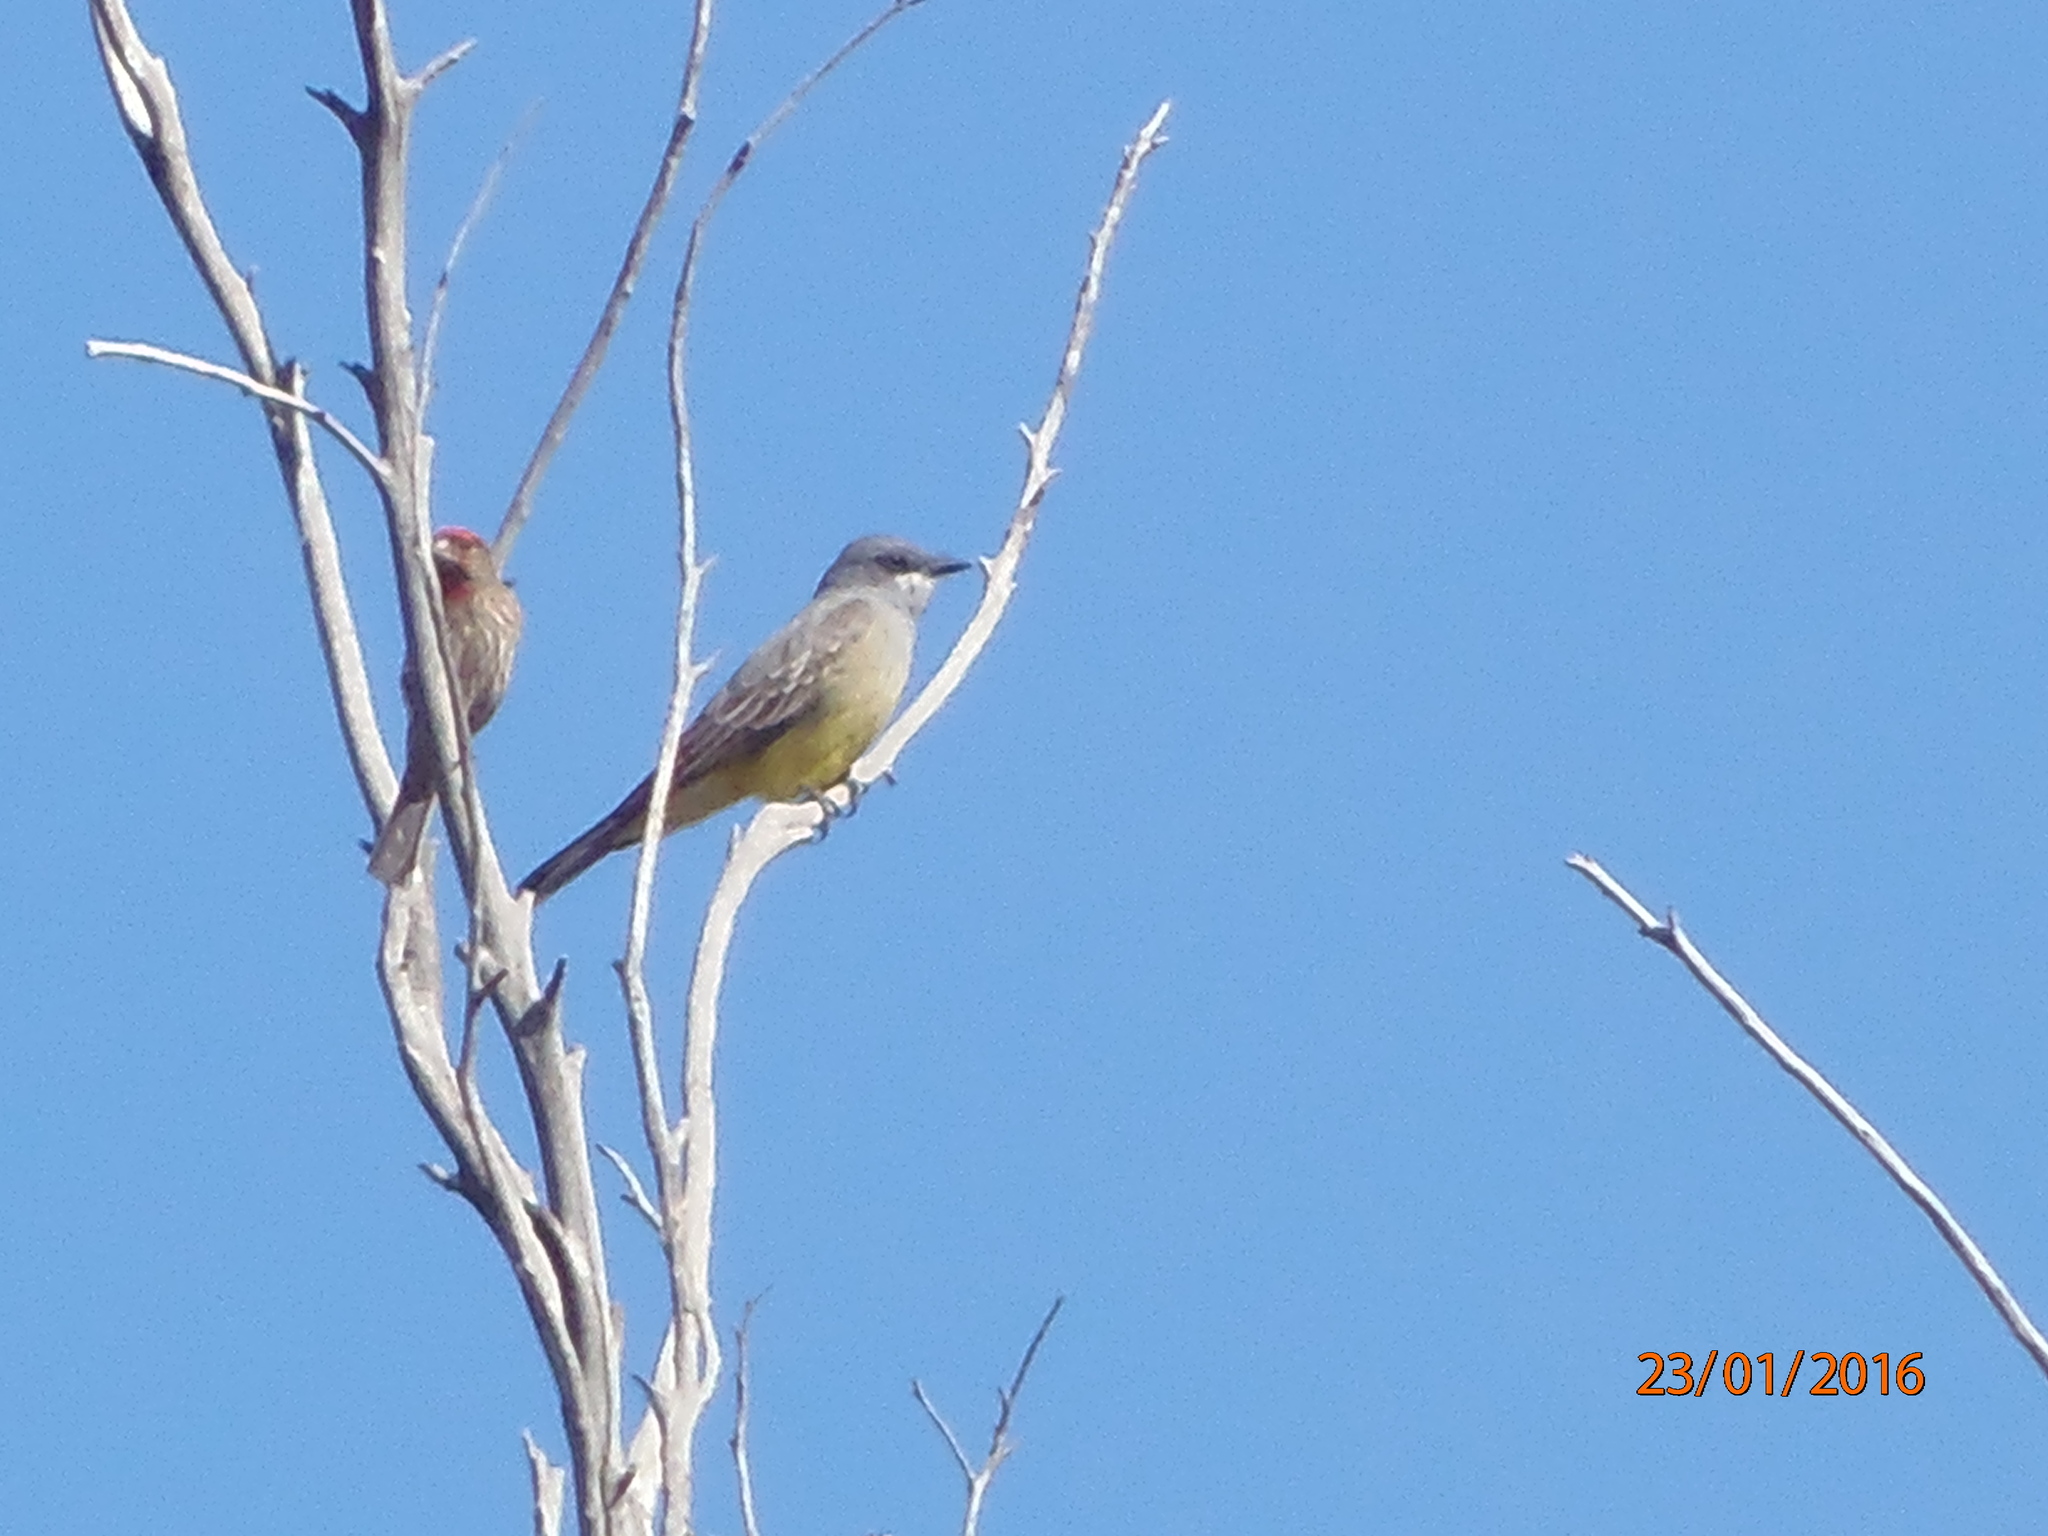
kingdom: Animalia
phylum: Chordata
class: Aves
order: Passeriformes
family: Tyrannidae
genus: Tyrannus
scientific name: Tyrannus vociferans
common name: Cassin's kingbird
